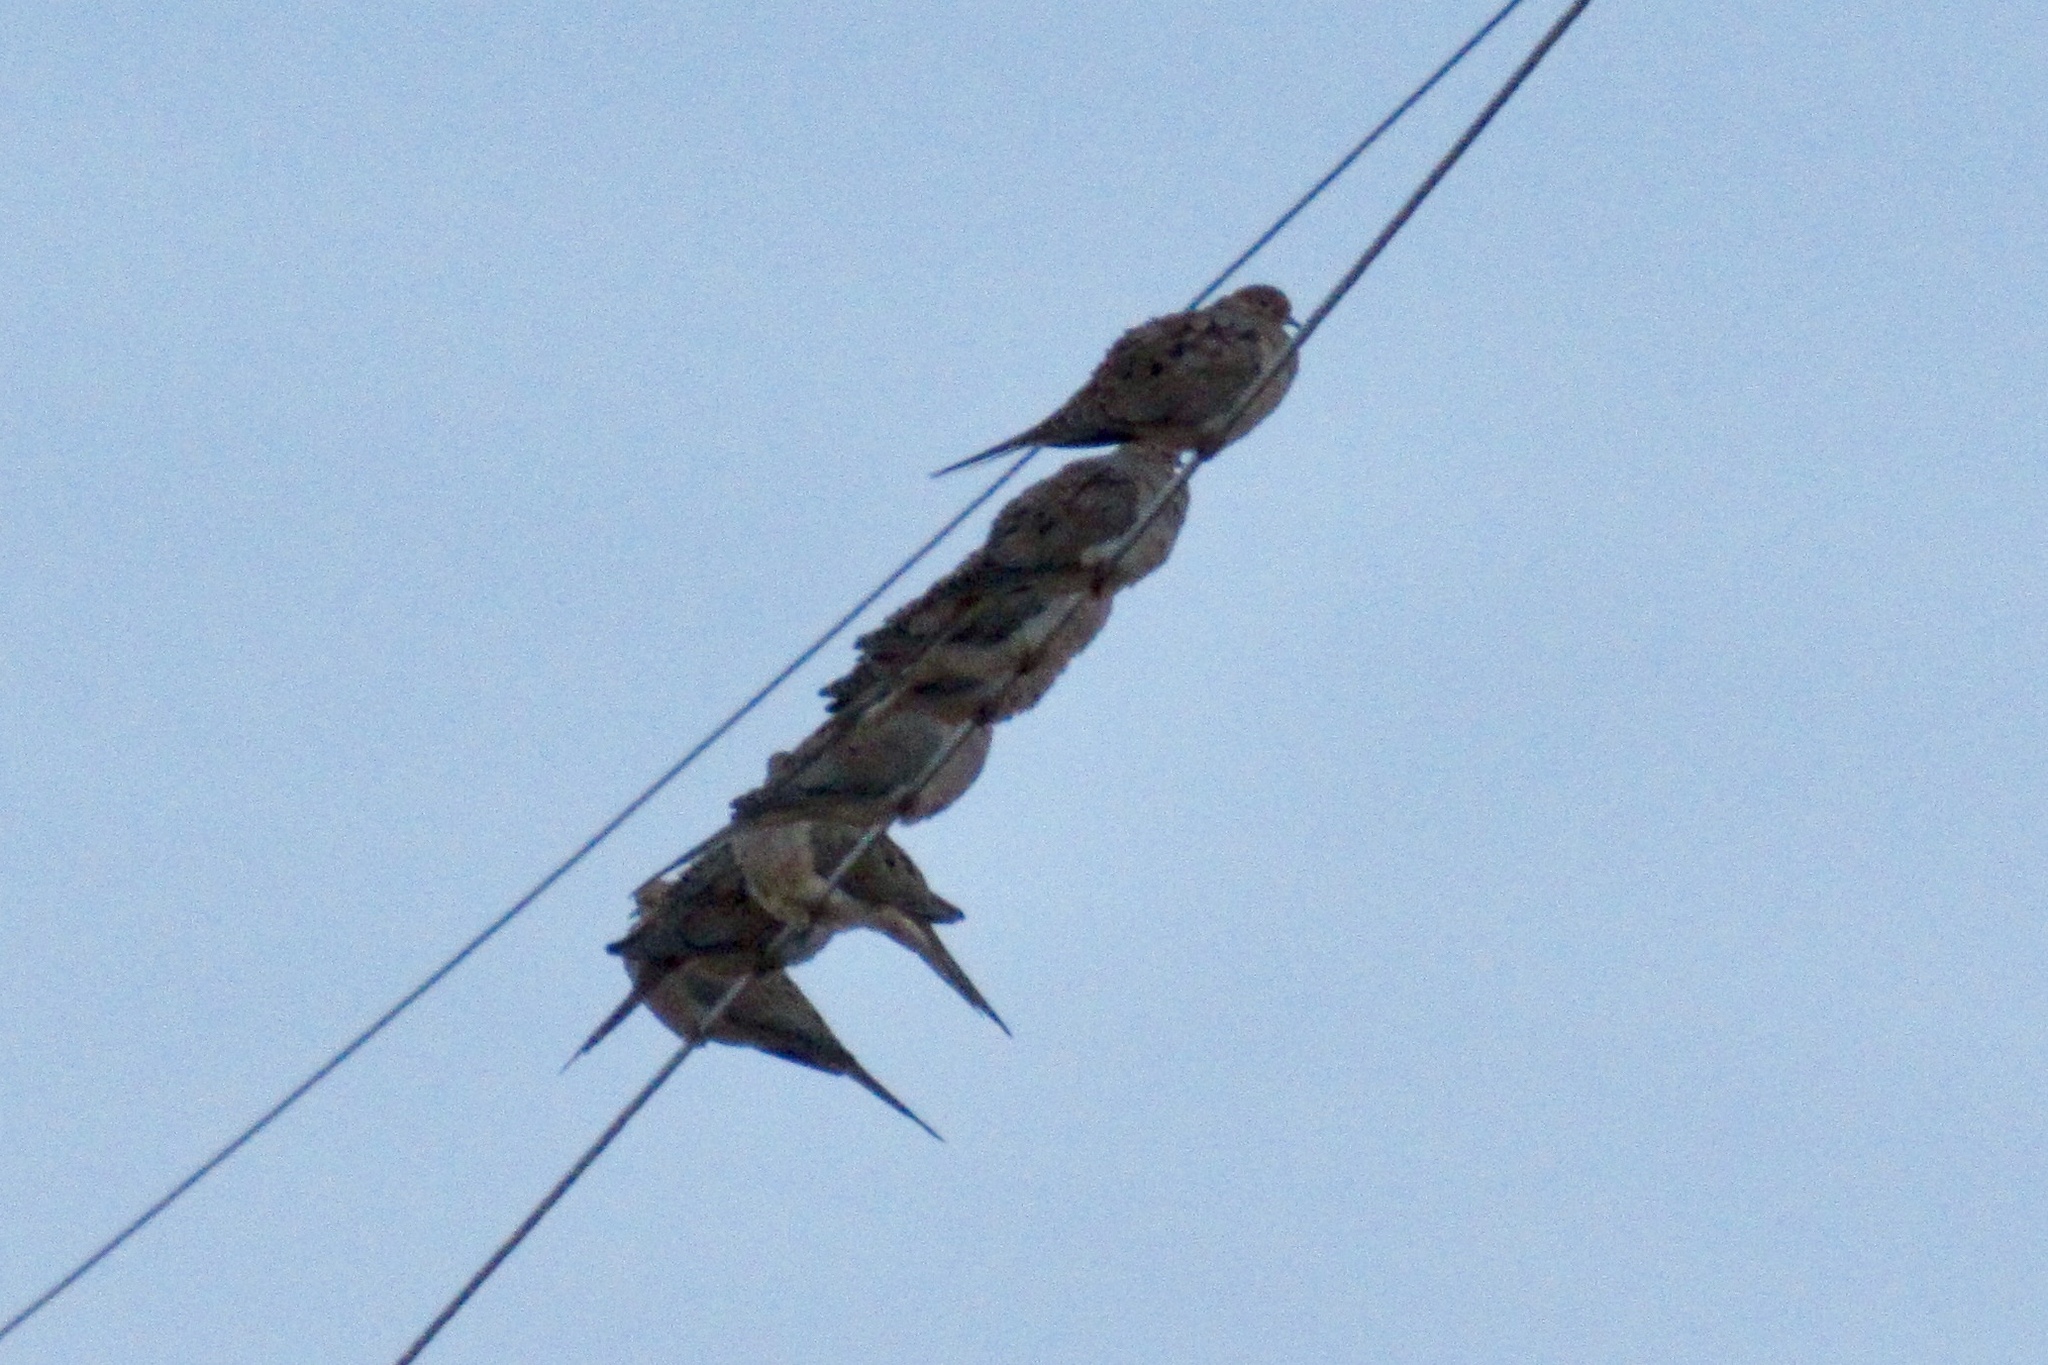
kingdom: Animalia
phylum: Chordata
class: Aves
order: Columbiformes
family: Columbidae
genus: Zenaida
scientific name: Zenaida macroura
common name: Mourning dove
